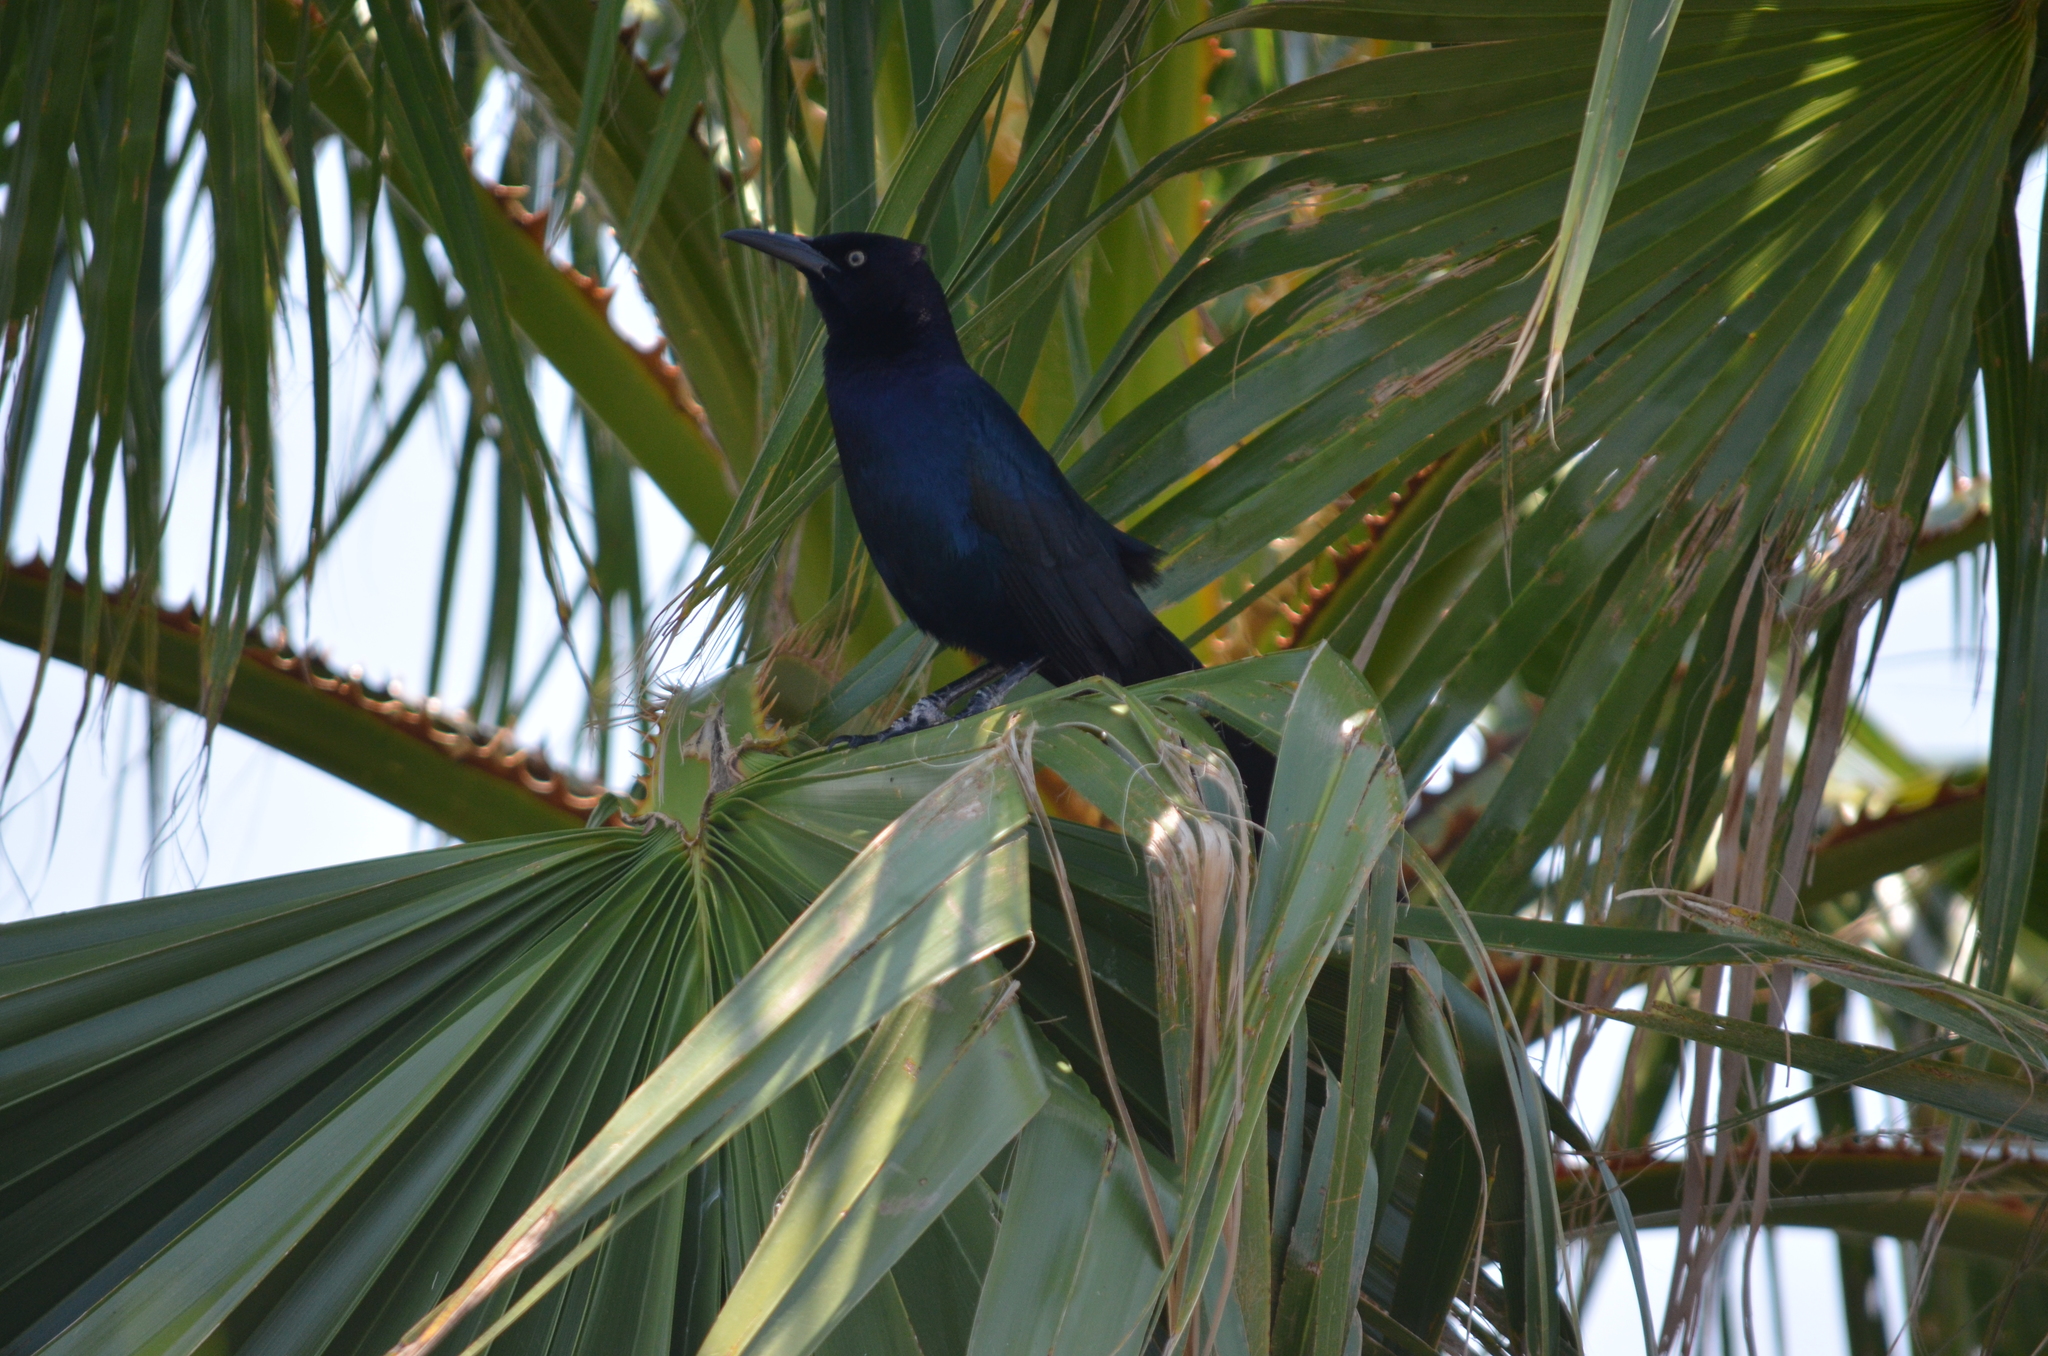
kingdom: Animalia
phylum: Chordata
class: Aves
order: Passeriformes
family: Icteridae
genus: Quiscalus
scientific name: Quiscalus major
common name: Boat-tailed grackle
